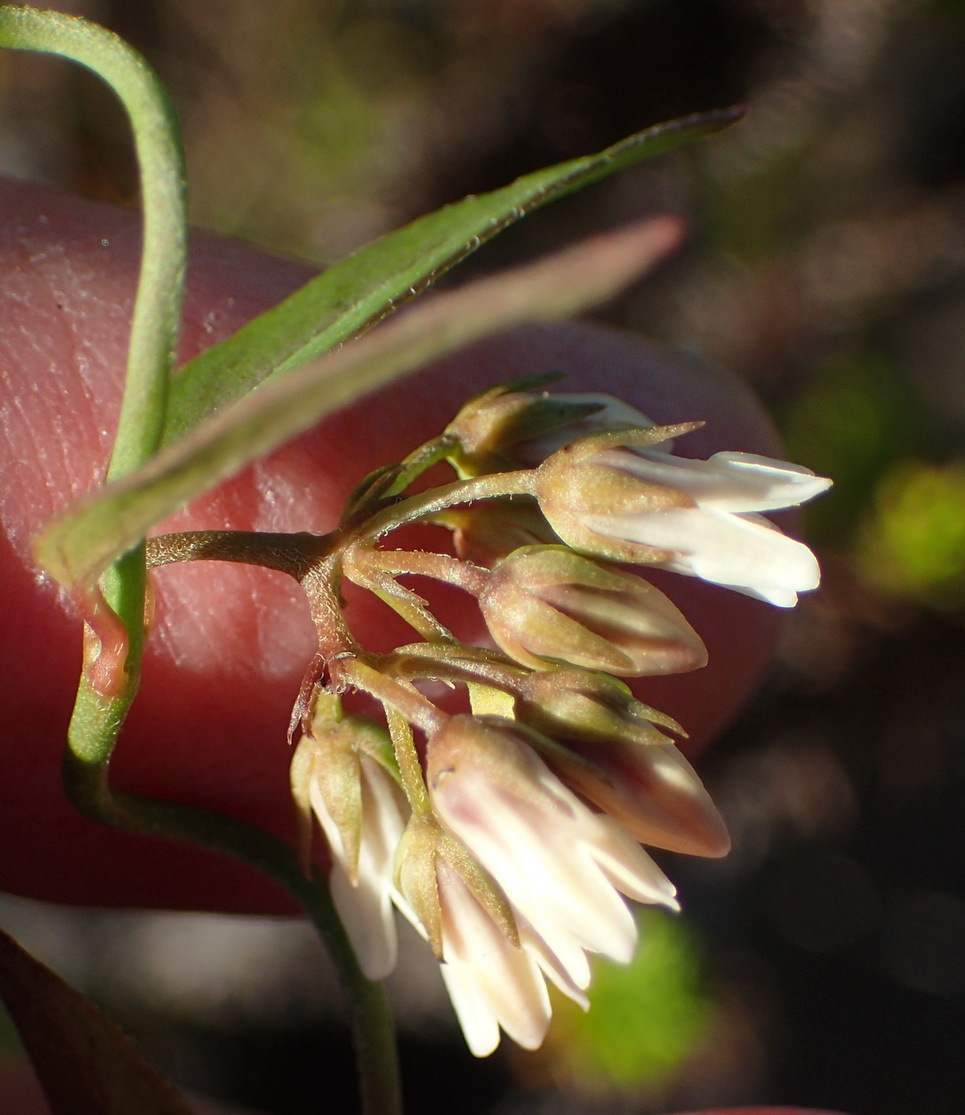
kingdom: Plantae
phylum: Tracheophyta
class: Magnoliopsida
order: Gentianales
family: Apocynaceae
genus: Astephanus
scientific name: Astephanus triflorus
